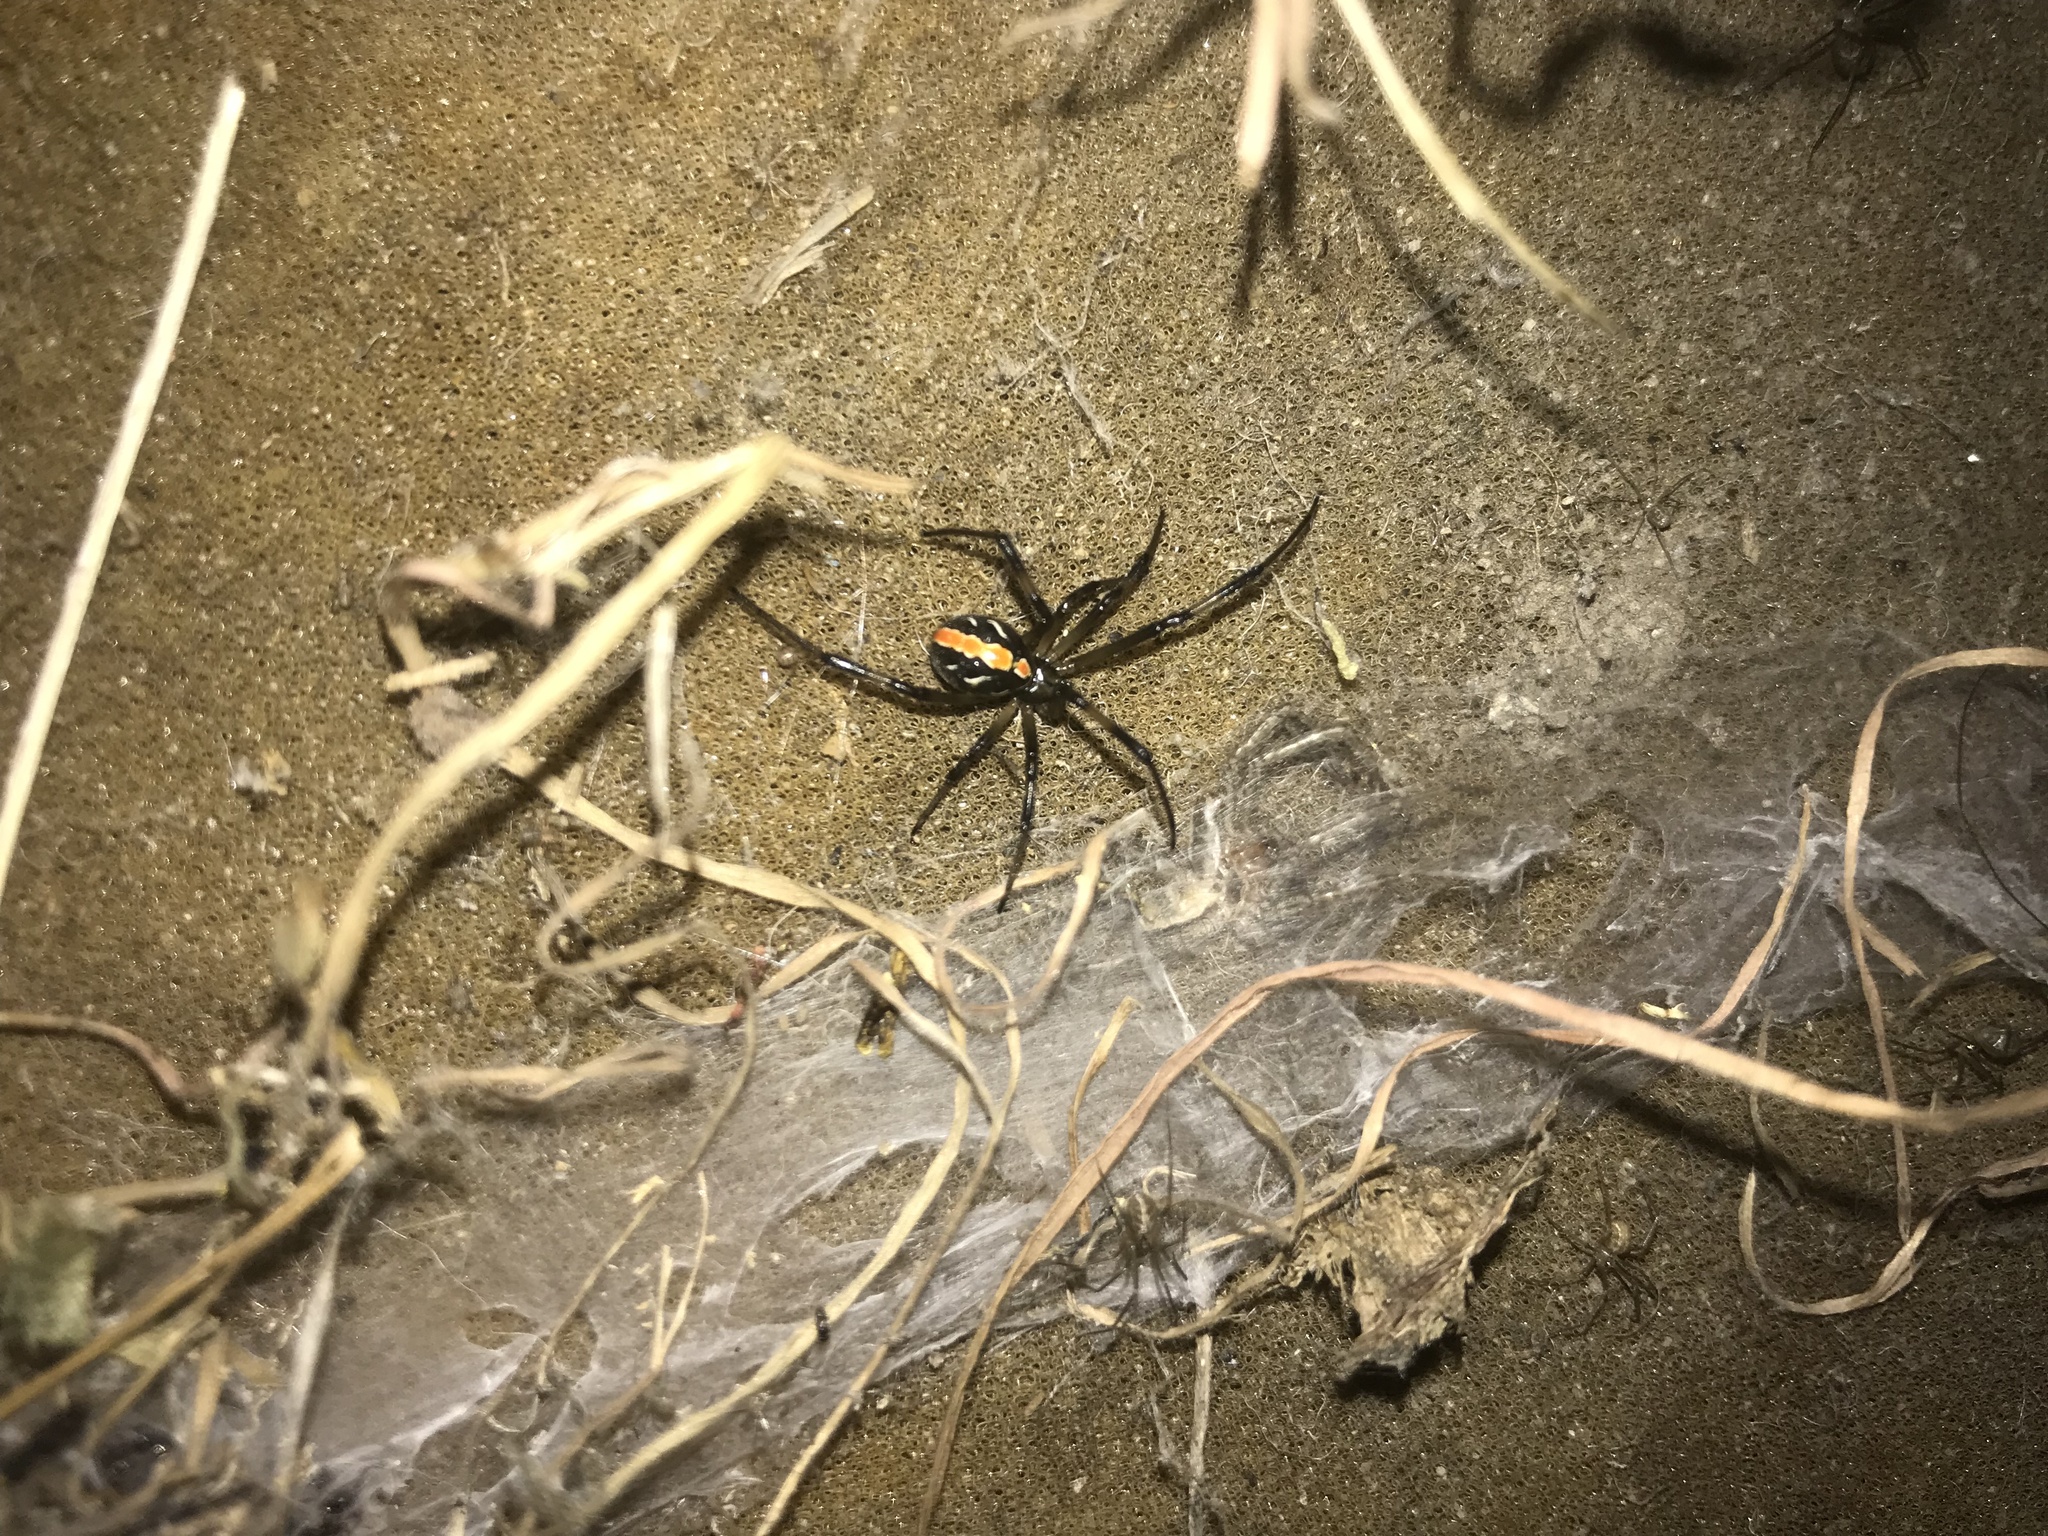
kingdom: Animalia
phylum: Arthropoda
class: Arachnida
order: Araneae
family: Theridiidae
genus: Latrodectus
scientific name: Latrodectus hesperus
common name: Western black widow
